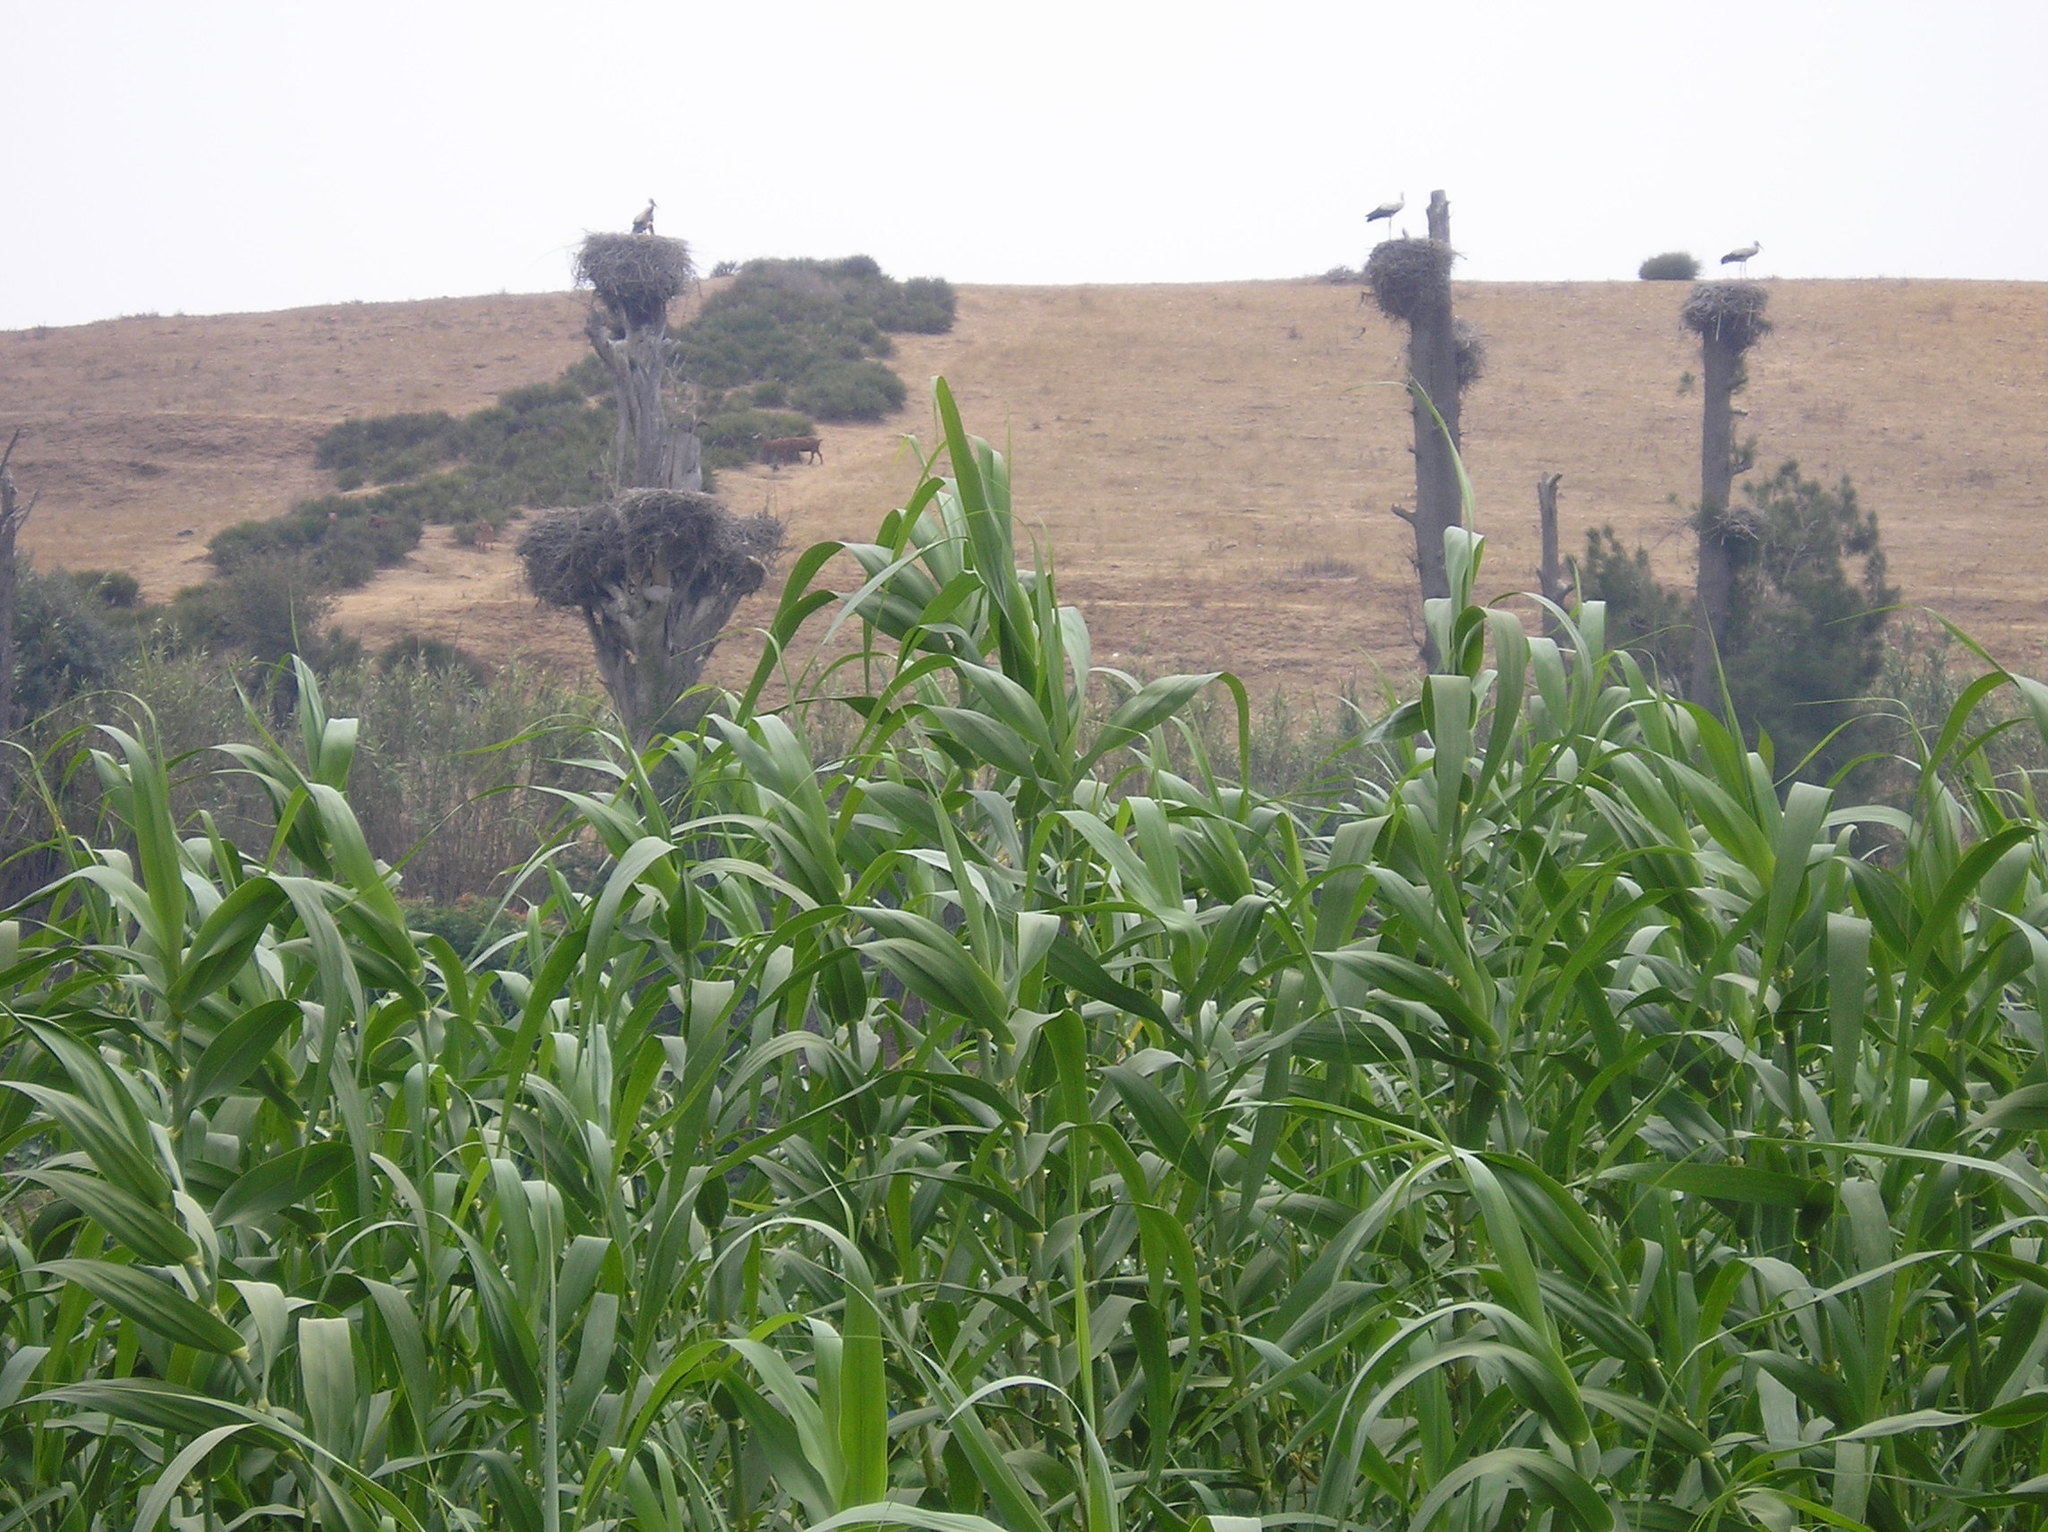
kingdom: Plantae
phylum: Tracheophyta
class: Liliopsida
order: Poales
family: Poaceae
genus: Arundo
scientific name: Arundo donax
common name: Giant reed
